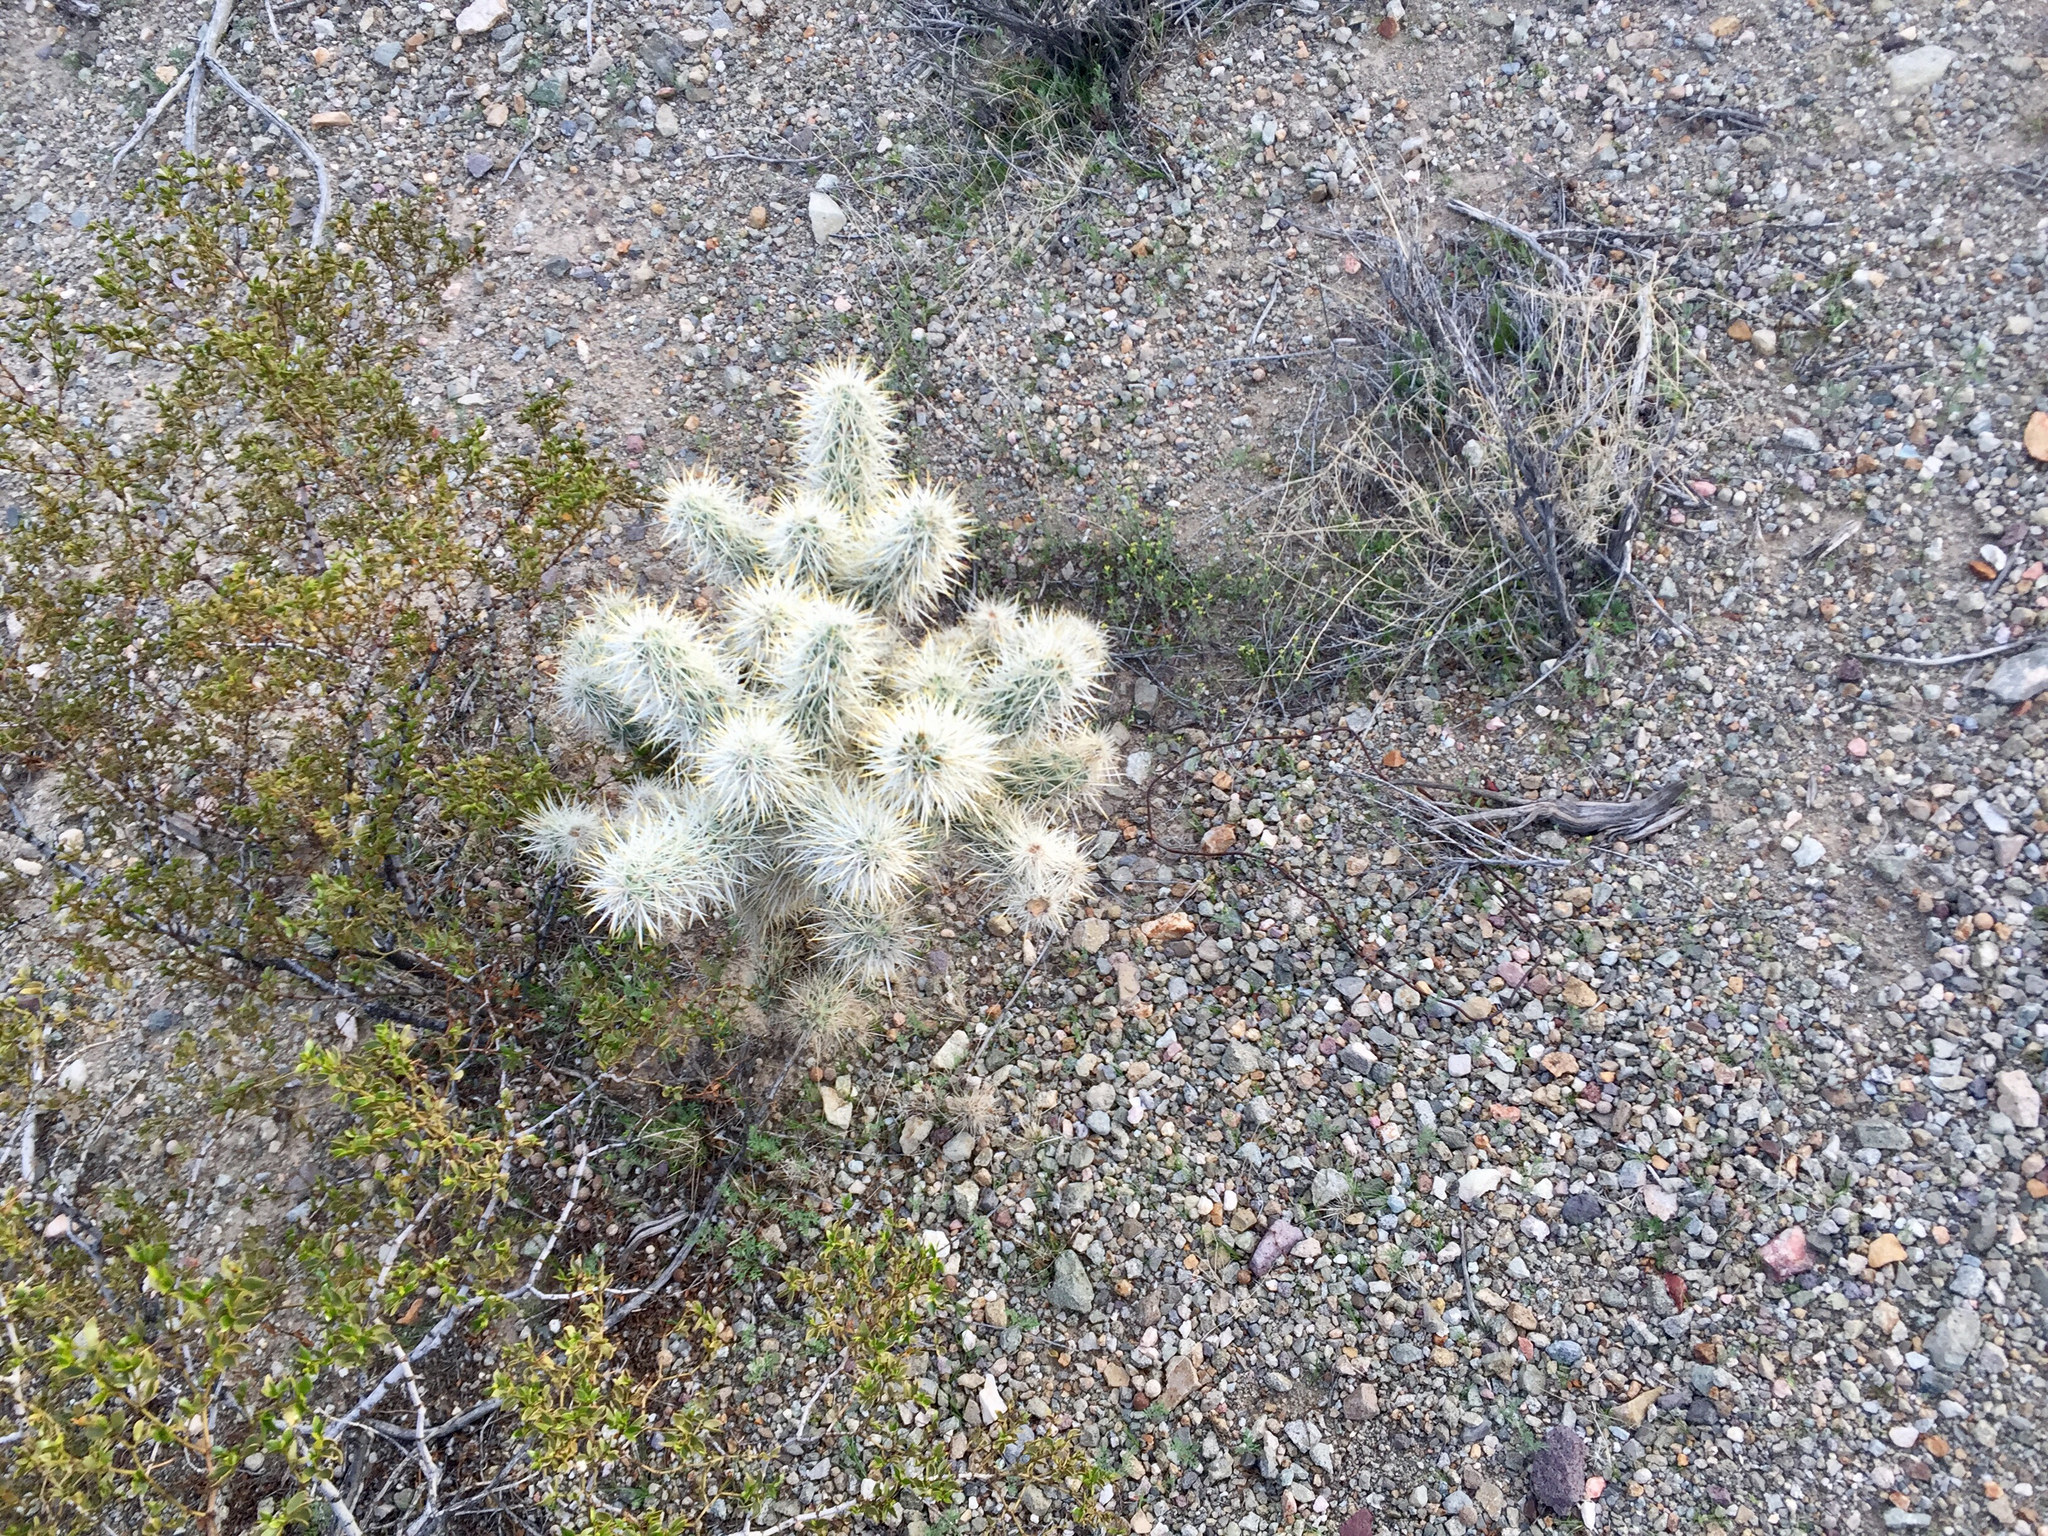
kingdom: Plantae
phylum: Tracheophyta
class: Magnoliopsida
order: Caryophyllales
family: Cactaceae
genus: Cylindropuntia
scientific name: Cylindropuntia echinocarpa
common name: Ground cholla
